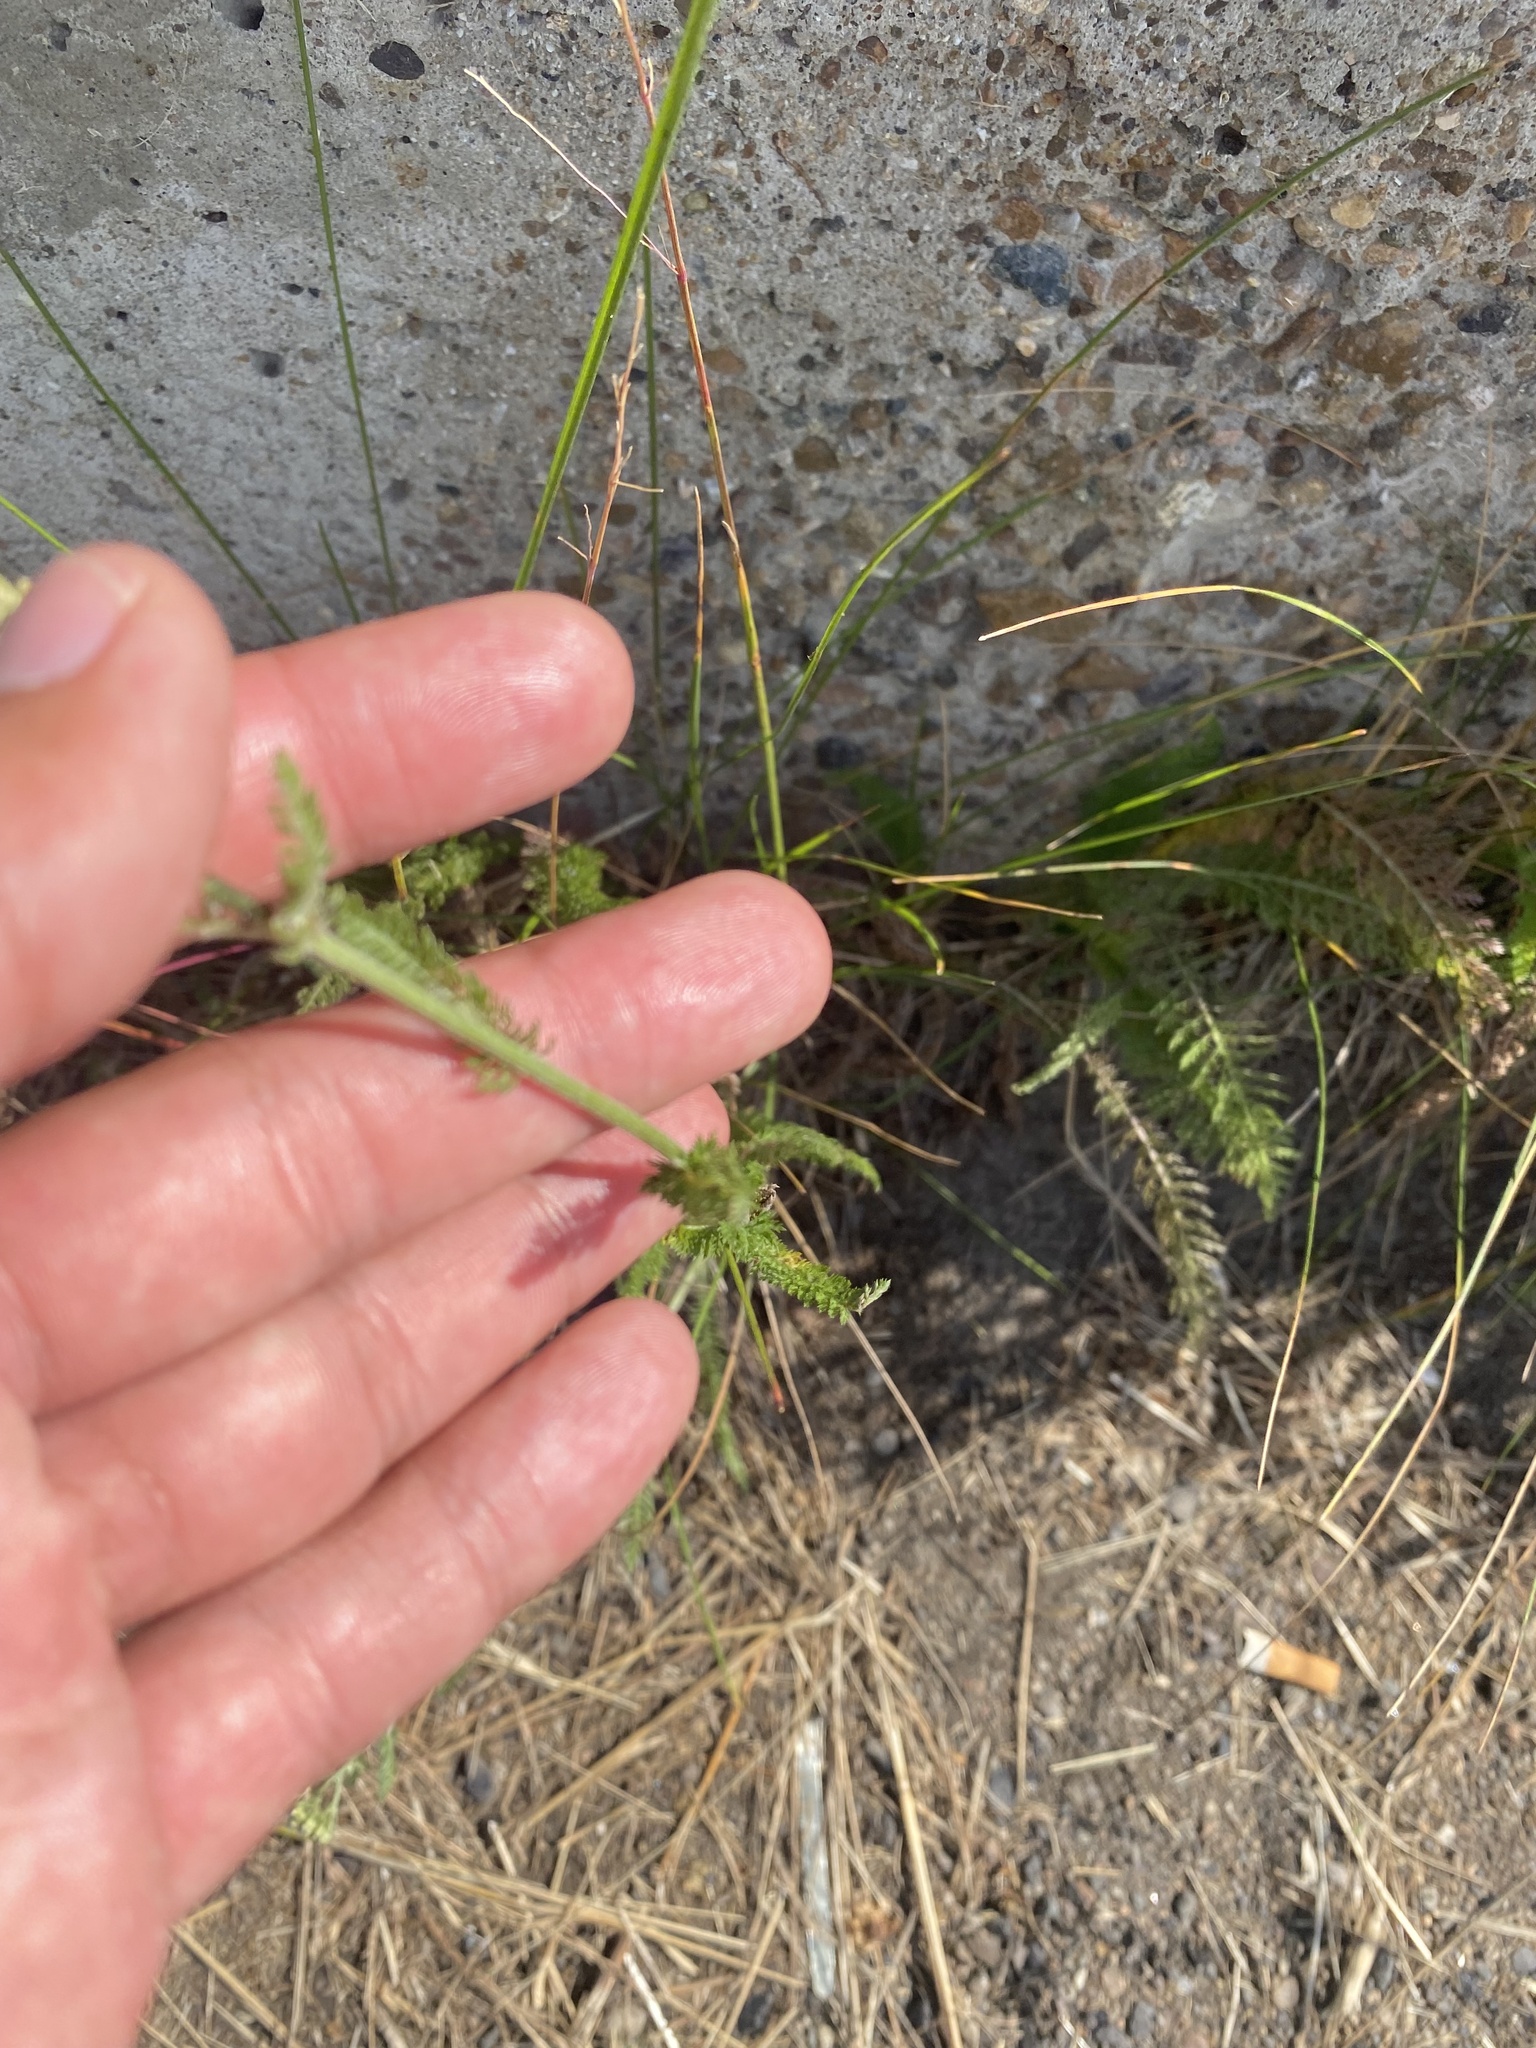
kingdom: Plantae
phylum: Tracheophyta
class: Magnoliopsida
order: Asterales
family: Asteraceae
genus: Achillea
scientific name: Achillea asiatica
